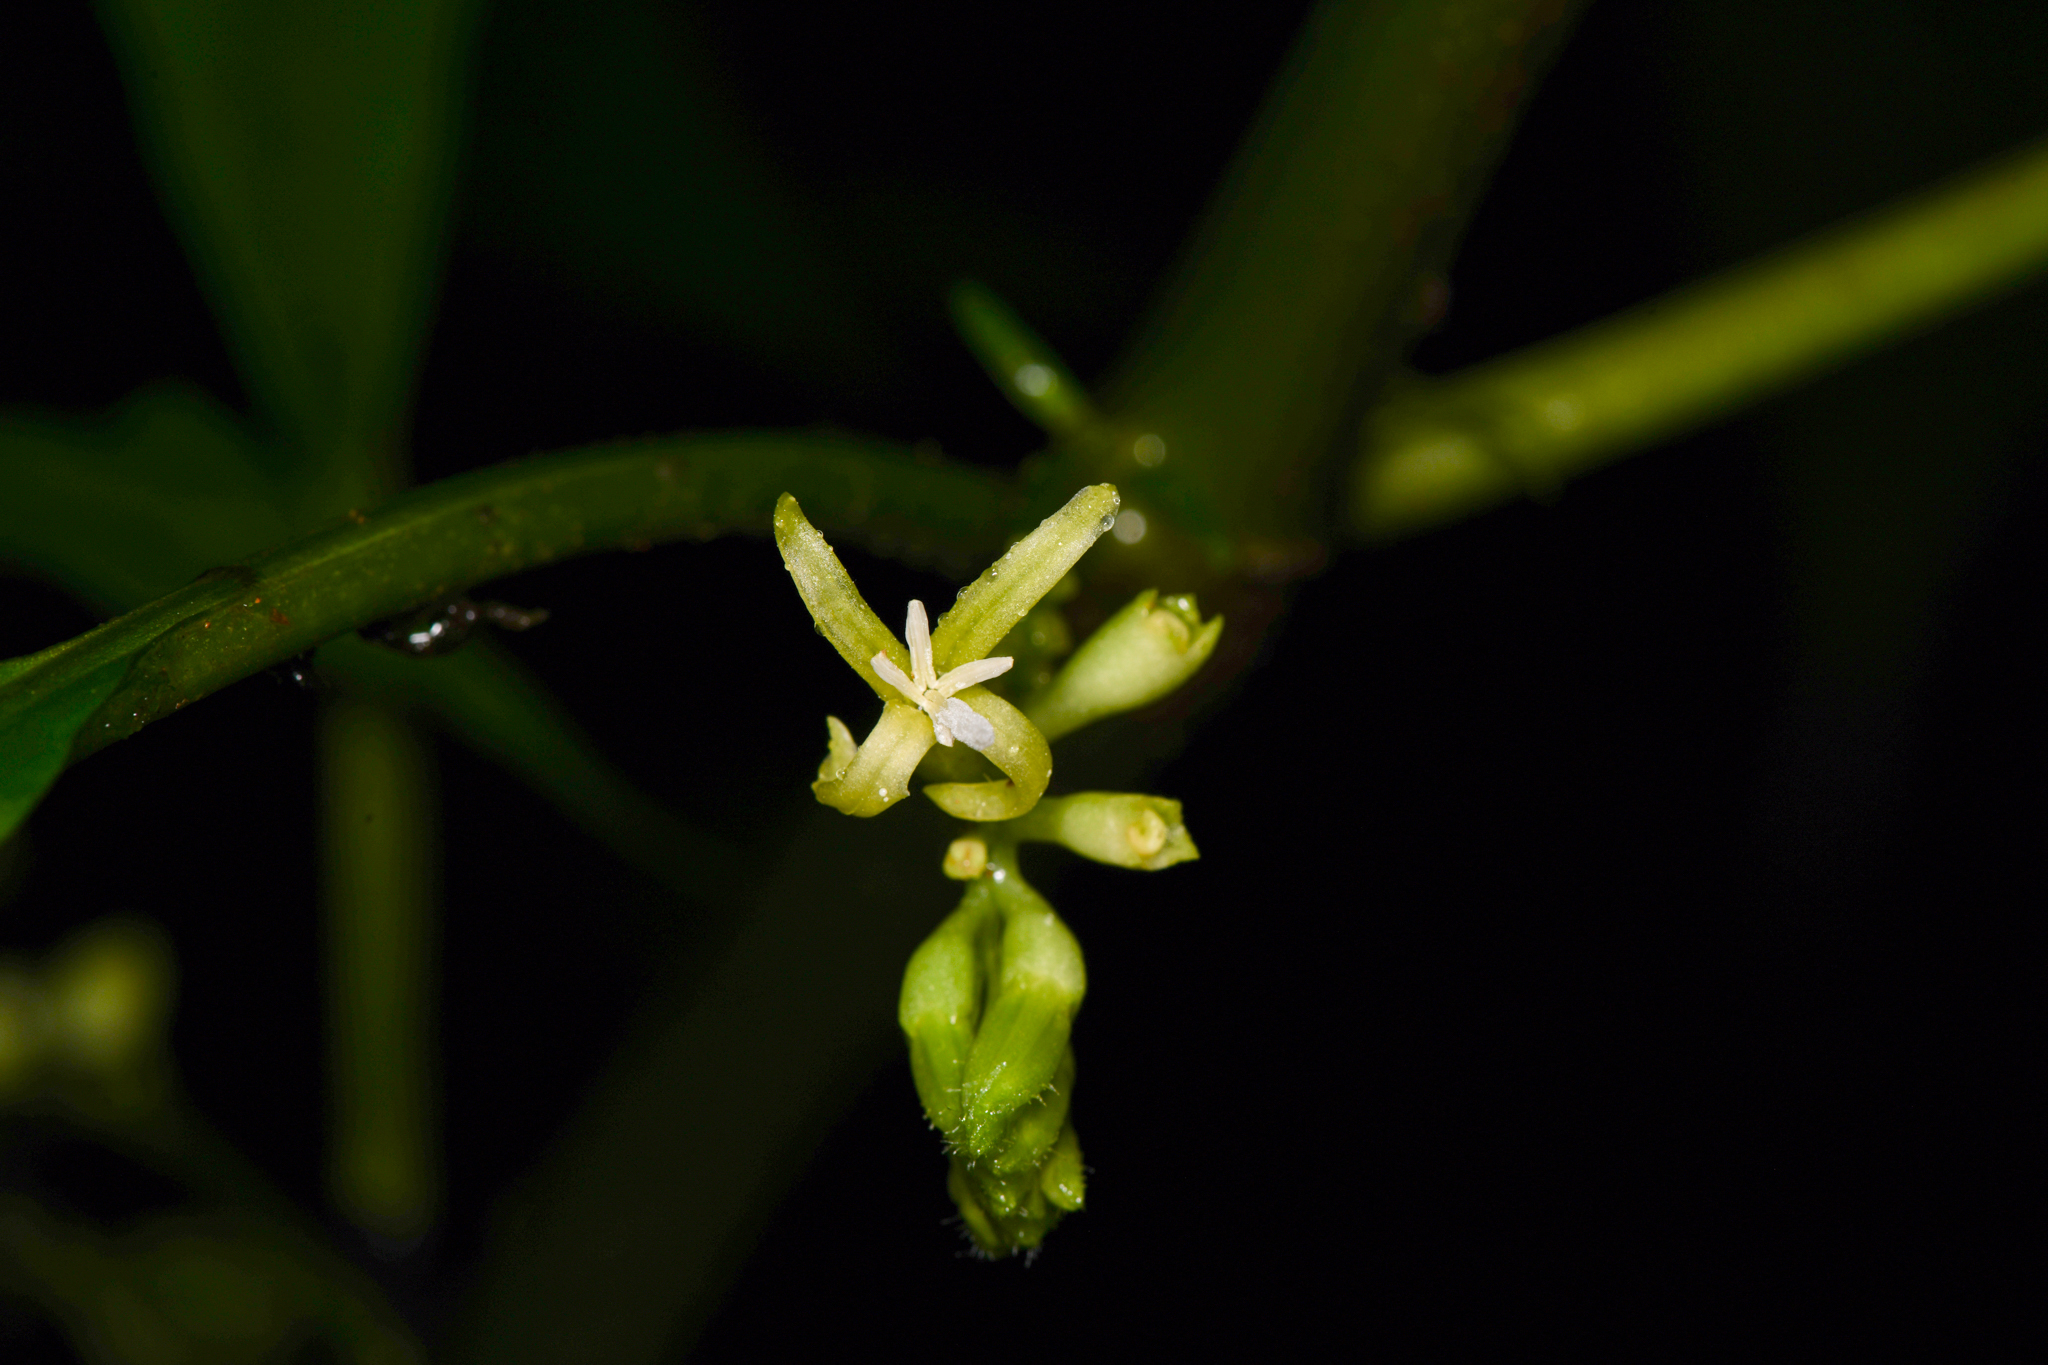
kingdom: Plantae
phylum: Tracheophyta
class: Magnoliopsida
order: Gentianales
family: Rubiaceae
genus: Hoffmannia
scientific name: Hoffmannia viridis
